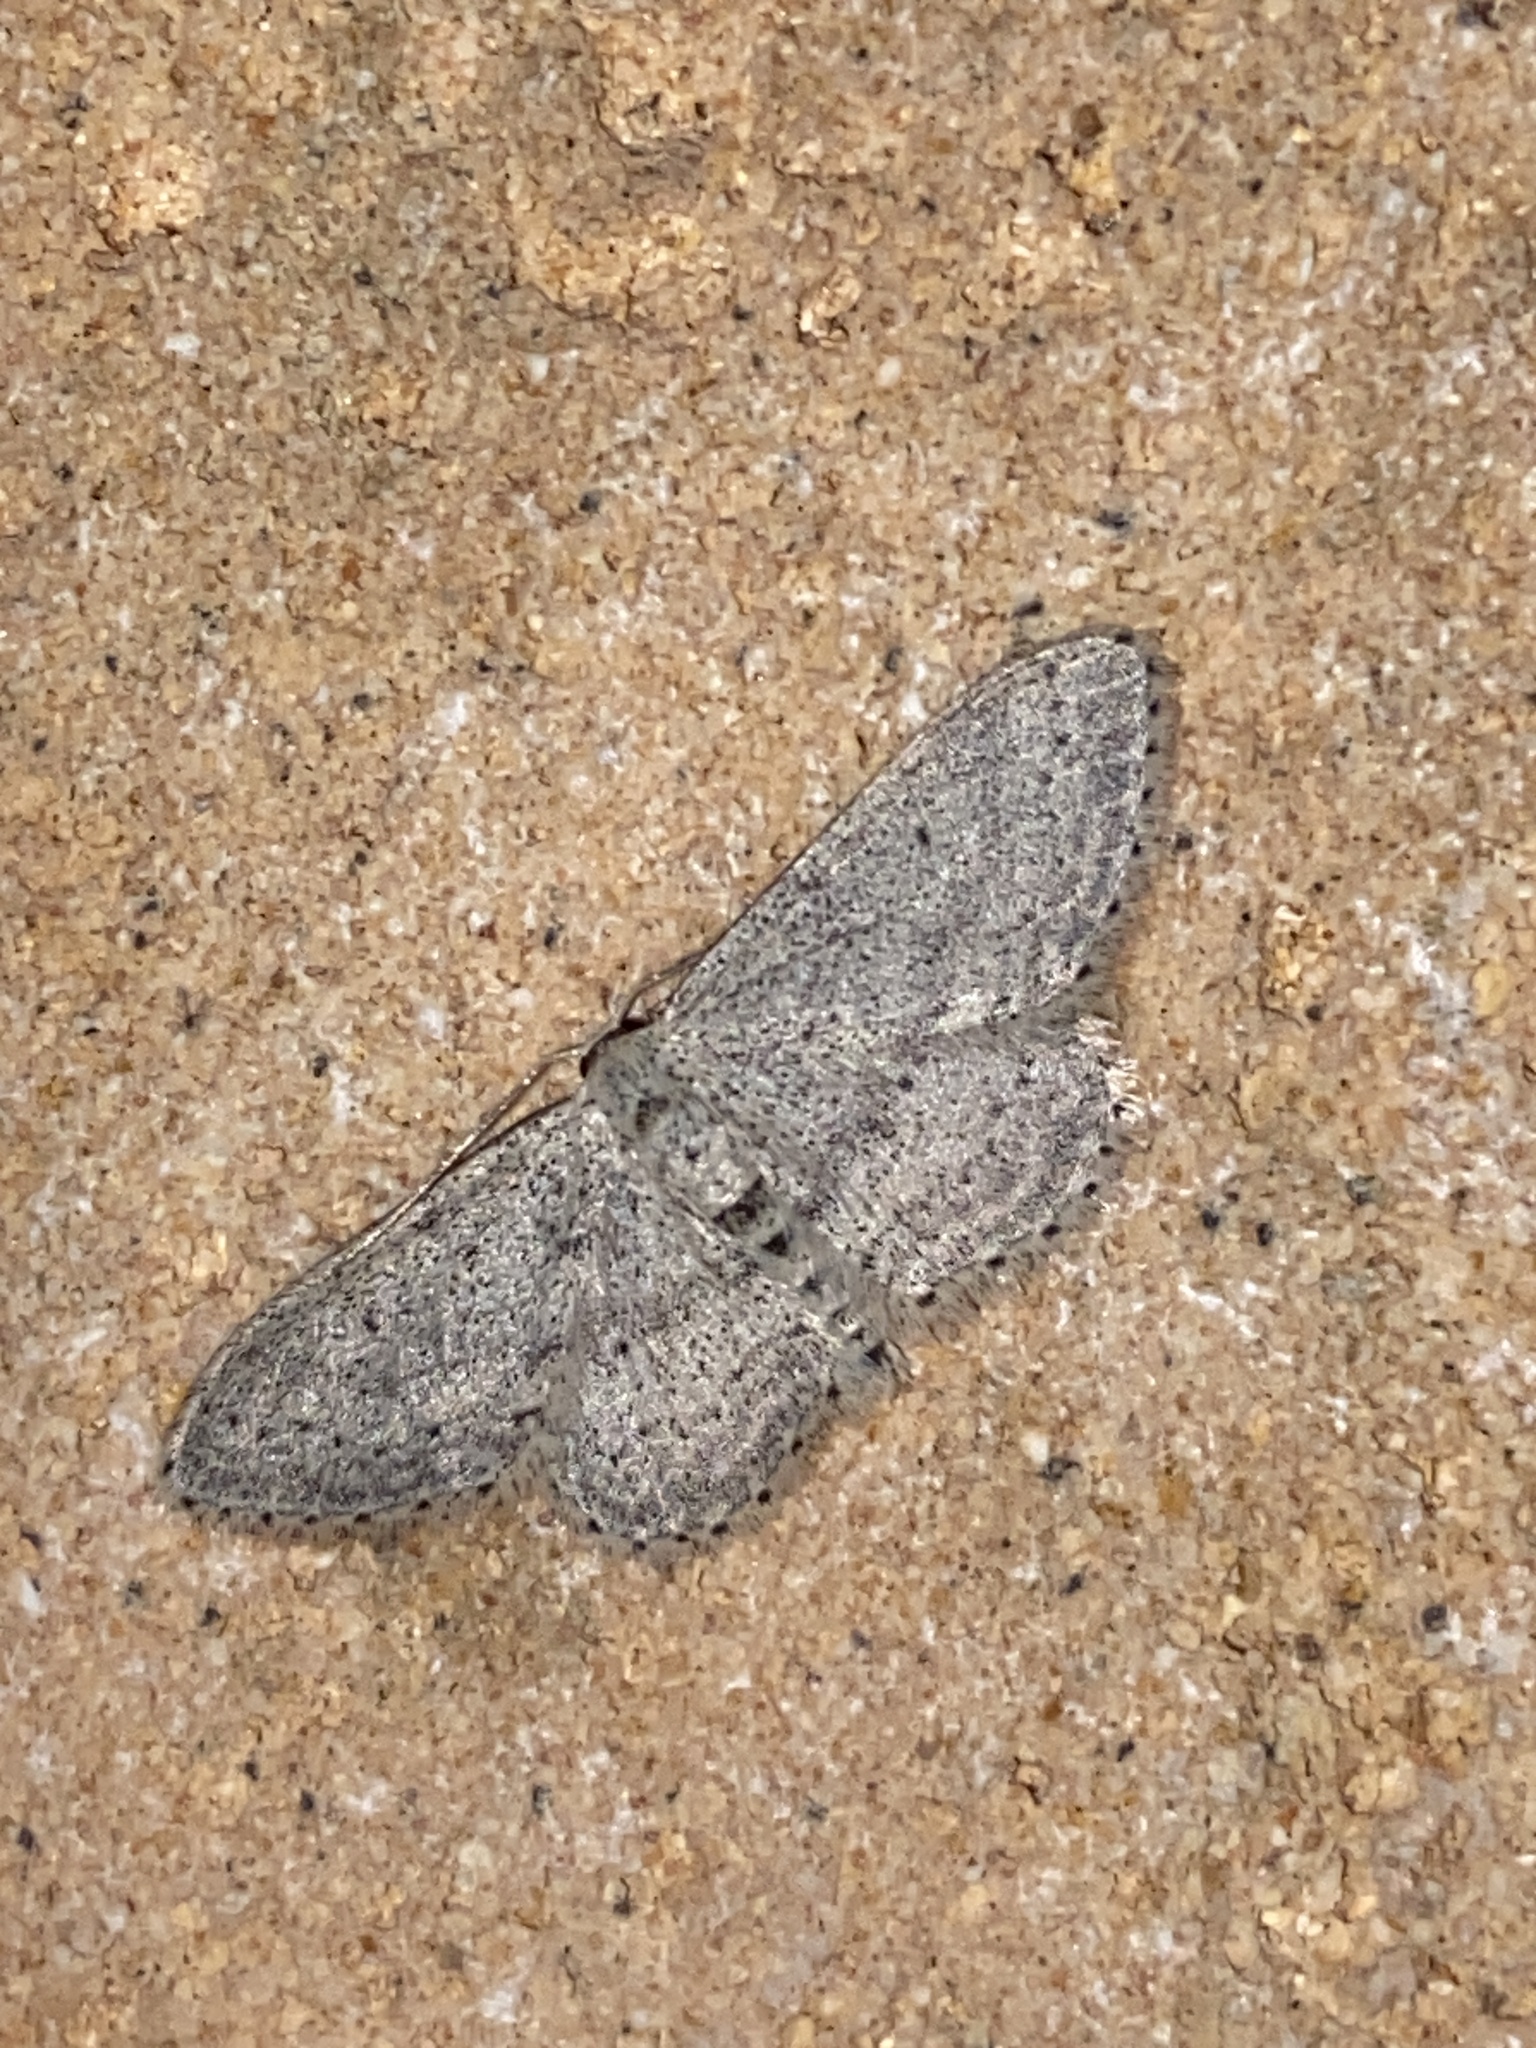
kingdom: Animalia
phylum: Arthropoda
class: Insecta
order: Lepidoptera
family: Geometridae
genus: Idaea
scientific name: Idaea seriata
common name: Small dusty wave
